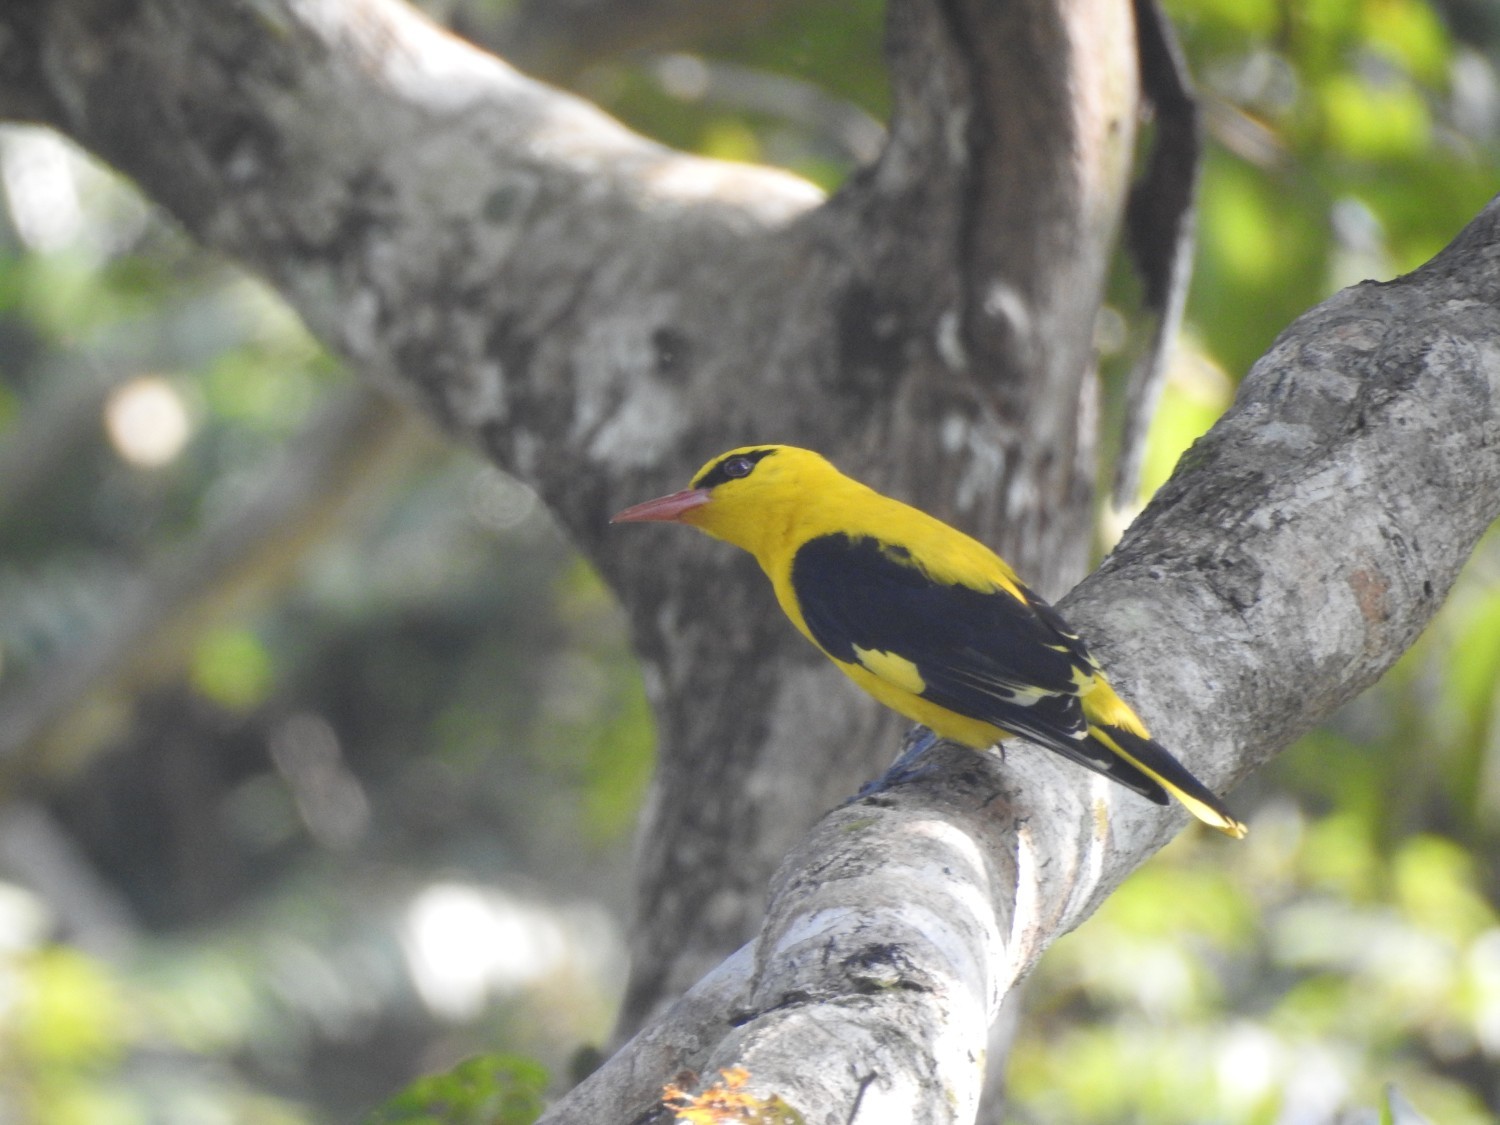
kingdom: Animalia
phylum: Chordata
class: Aves
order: Passeriformes
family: Oriolidae
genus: Oriolus
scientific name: Oriolus kundoo
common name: Indian golden oriole
